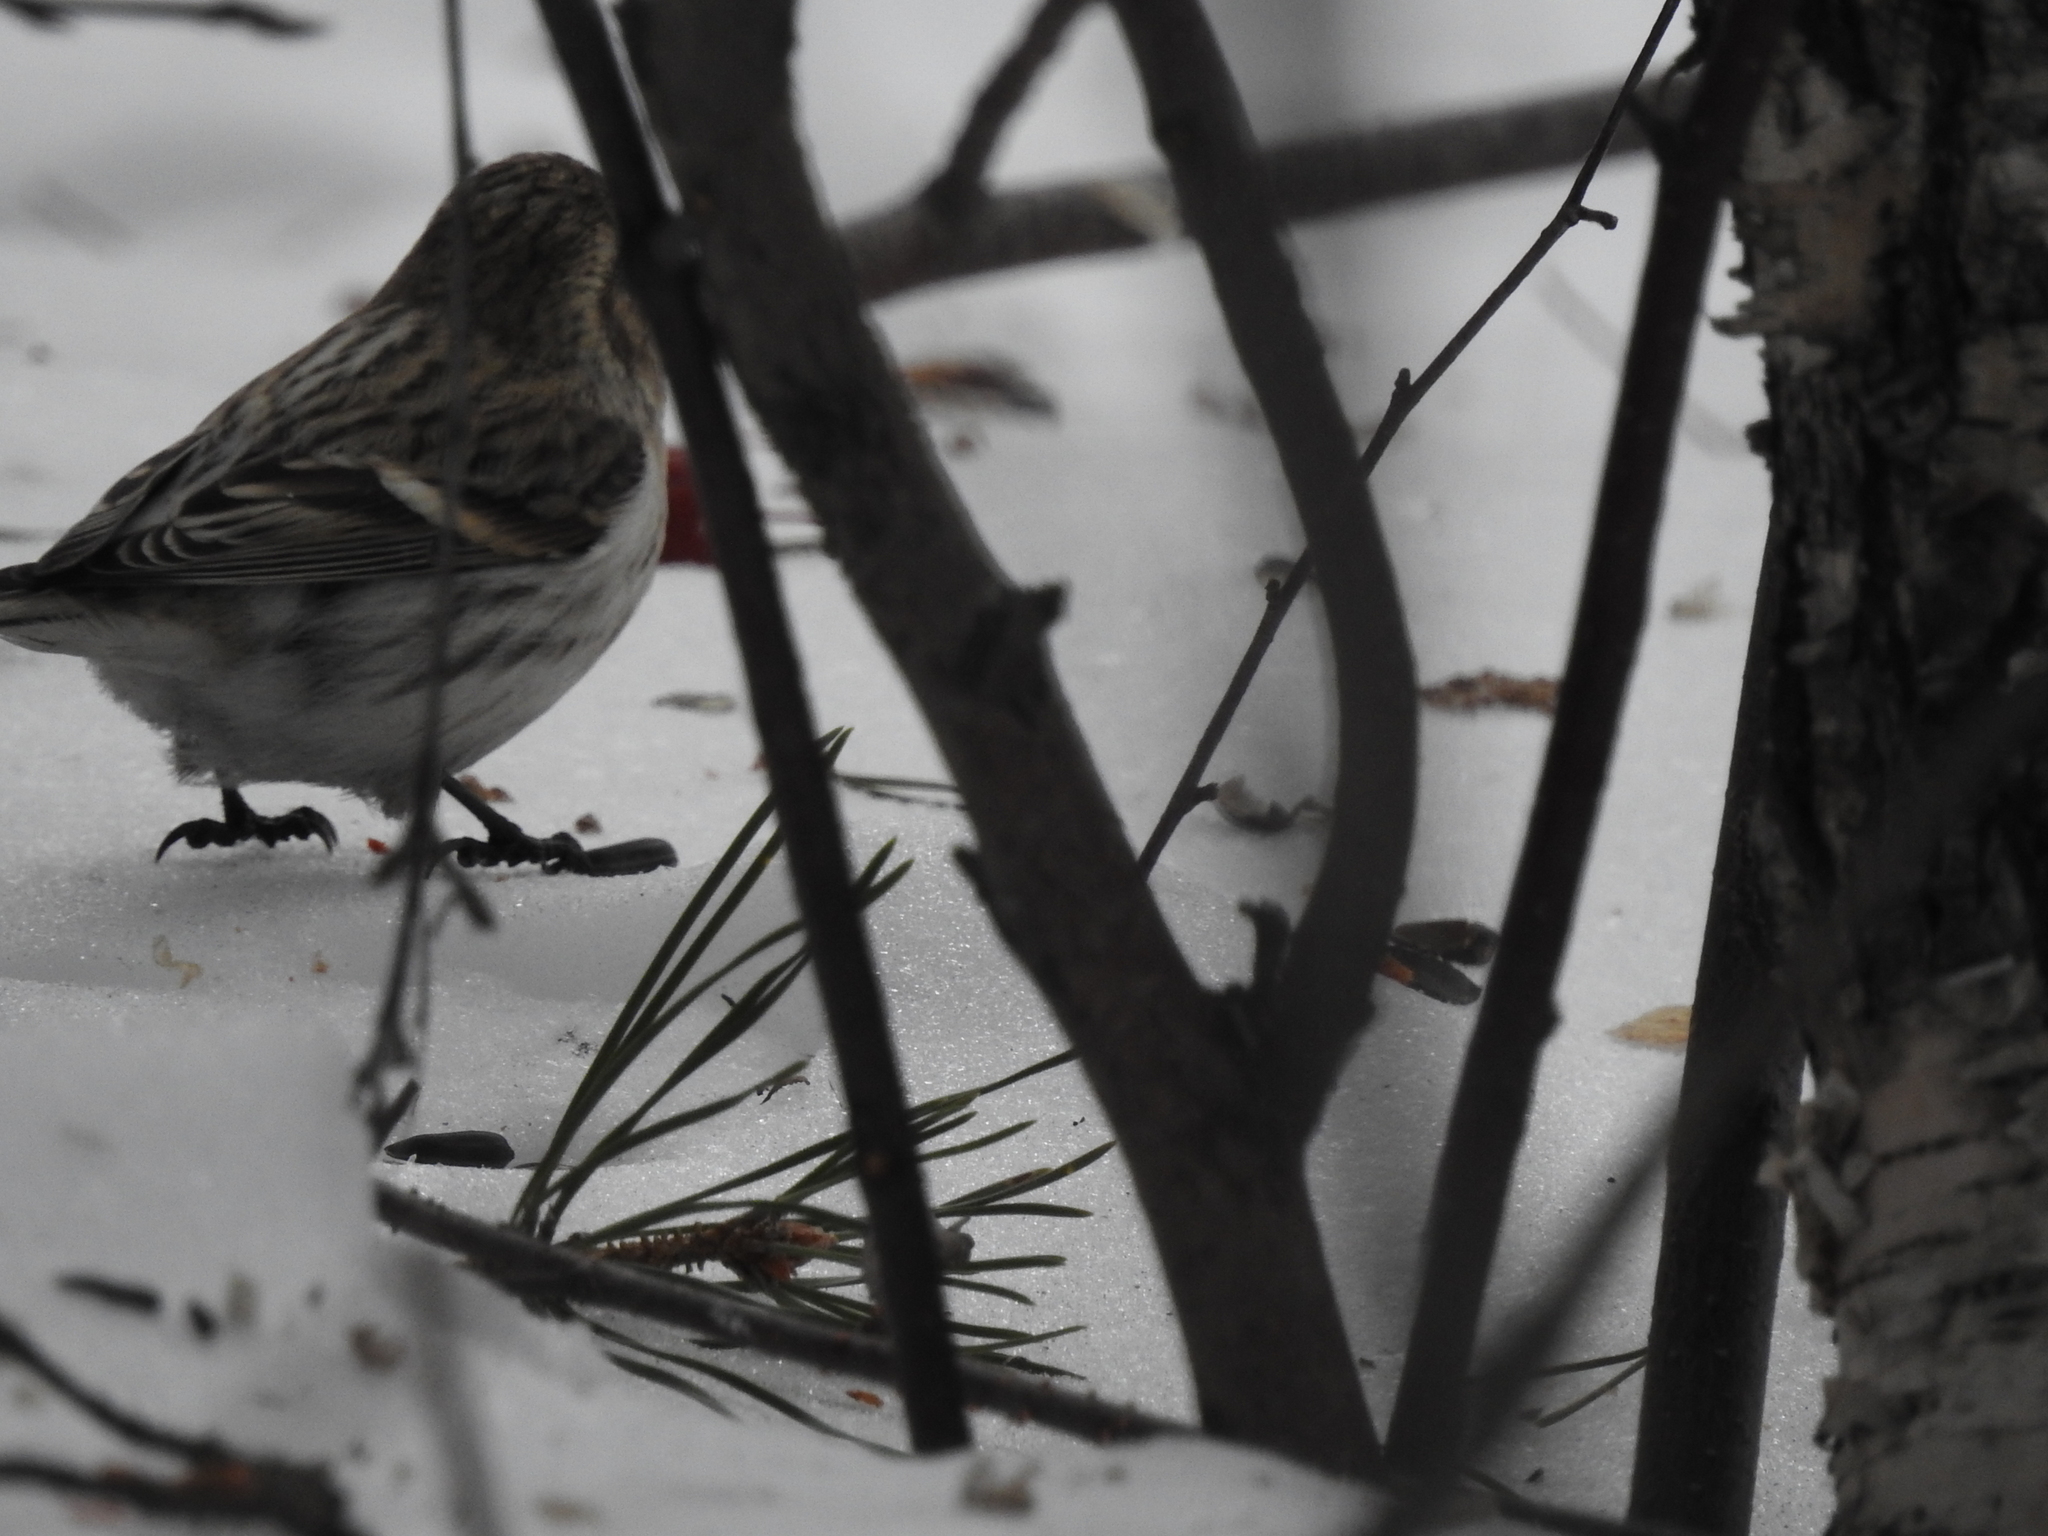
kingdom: Animalia
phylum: Chordata
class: Aves
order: Passeriformes
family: Fringillidae
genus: Acanthis
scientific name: Acanthis flammea
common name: Common redpoll
